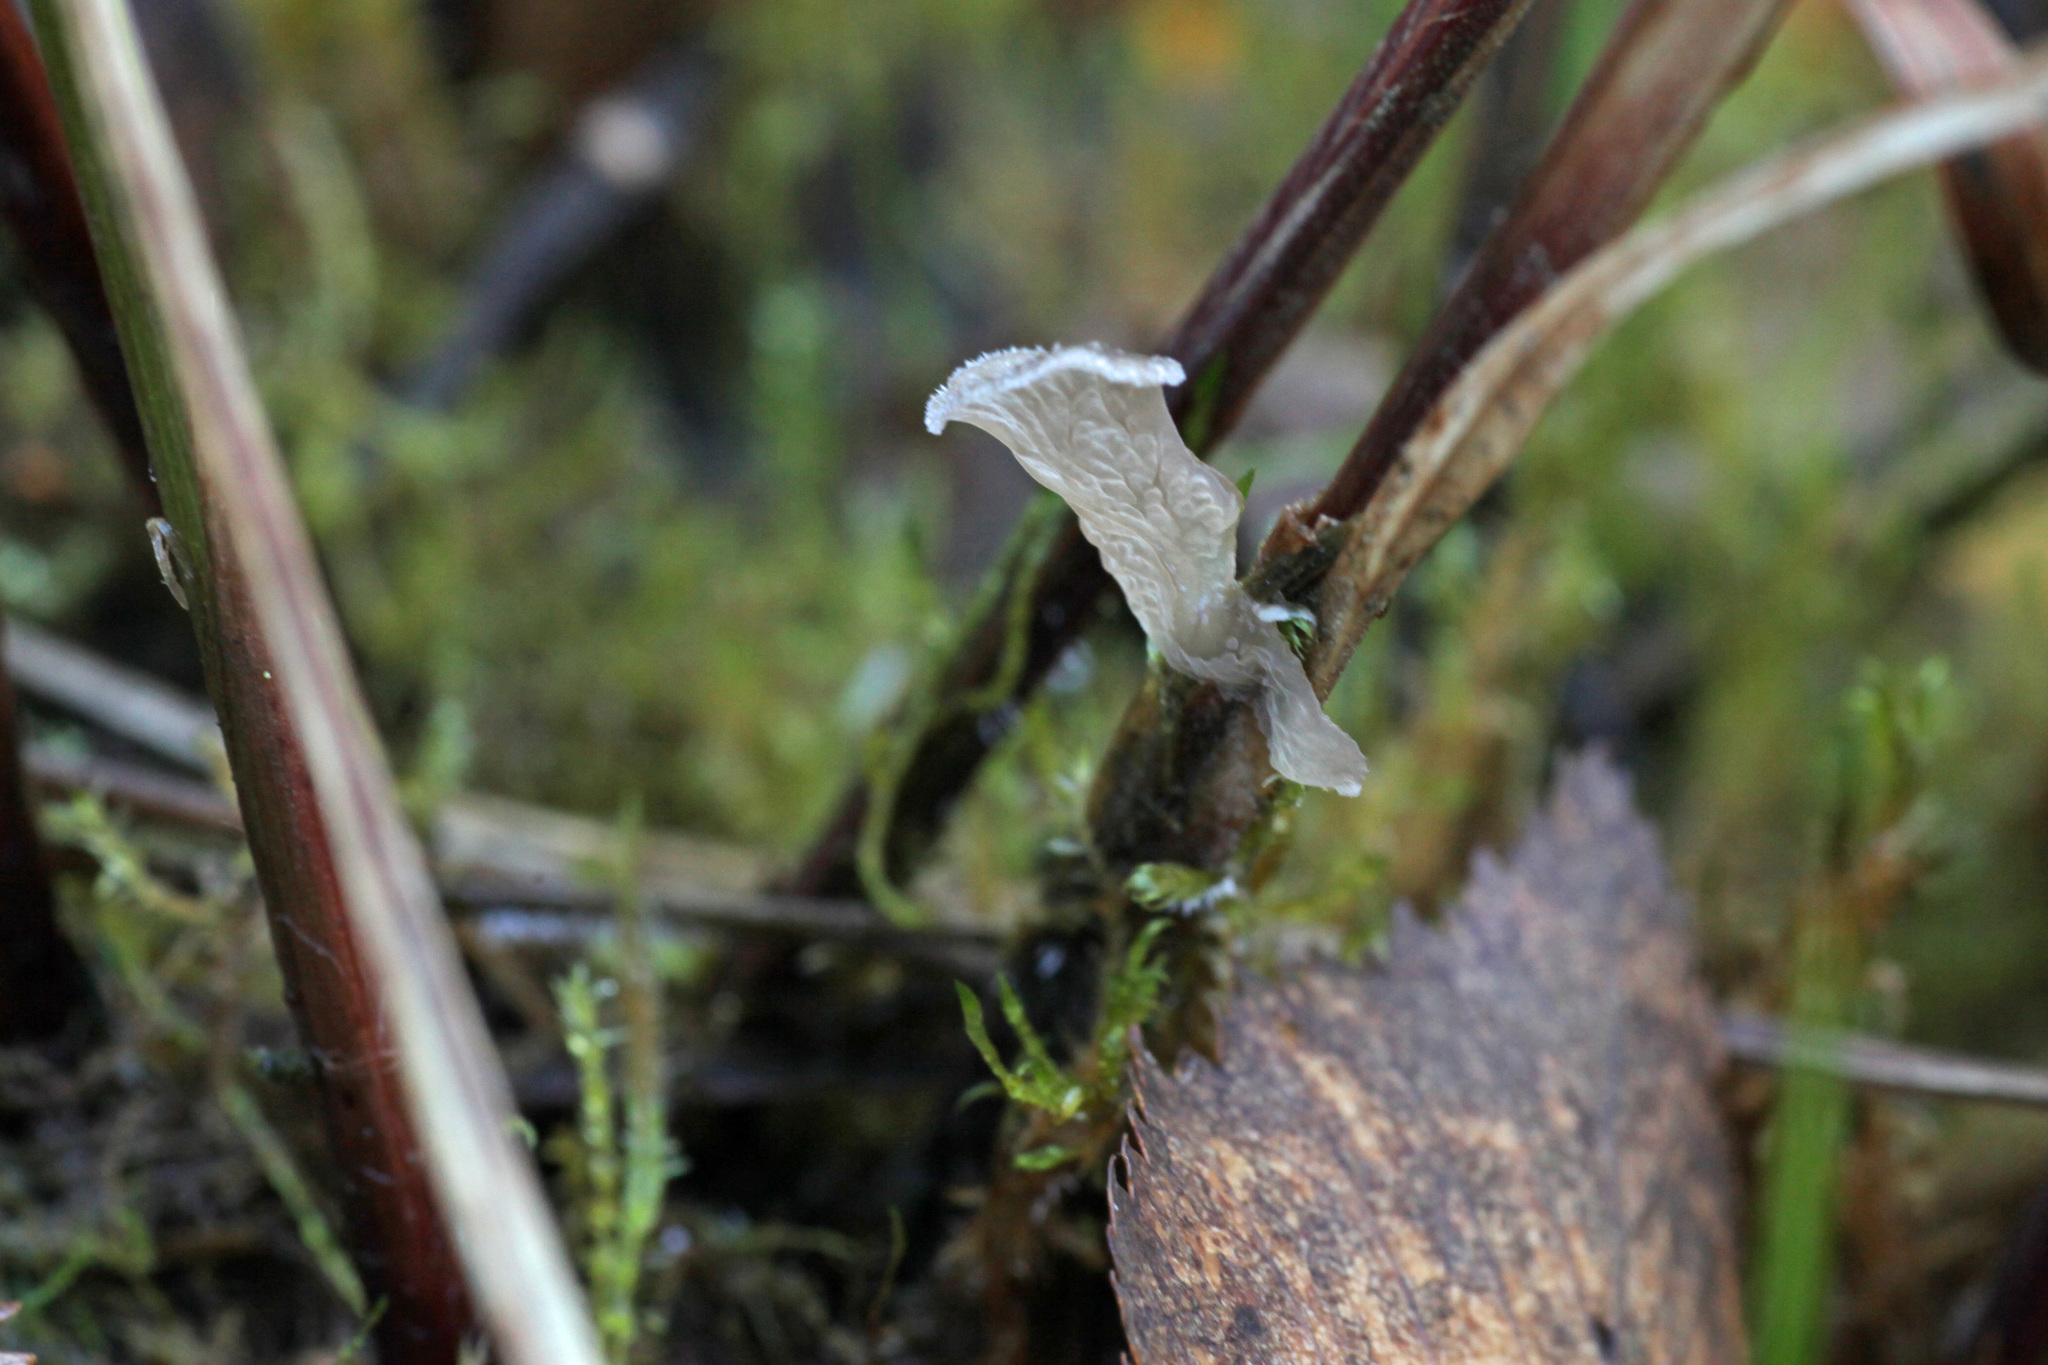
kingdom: Fungi
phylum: Basidiomycota
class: Agaricomycetes
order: Agaricales
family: Hygrophoraceae
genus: Arrhenia
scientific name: Arrhenia lobata
